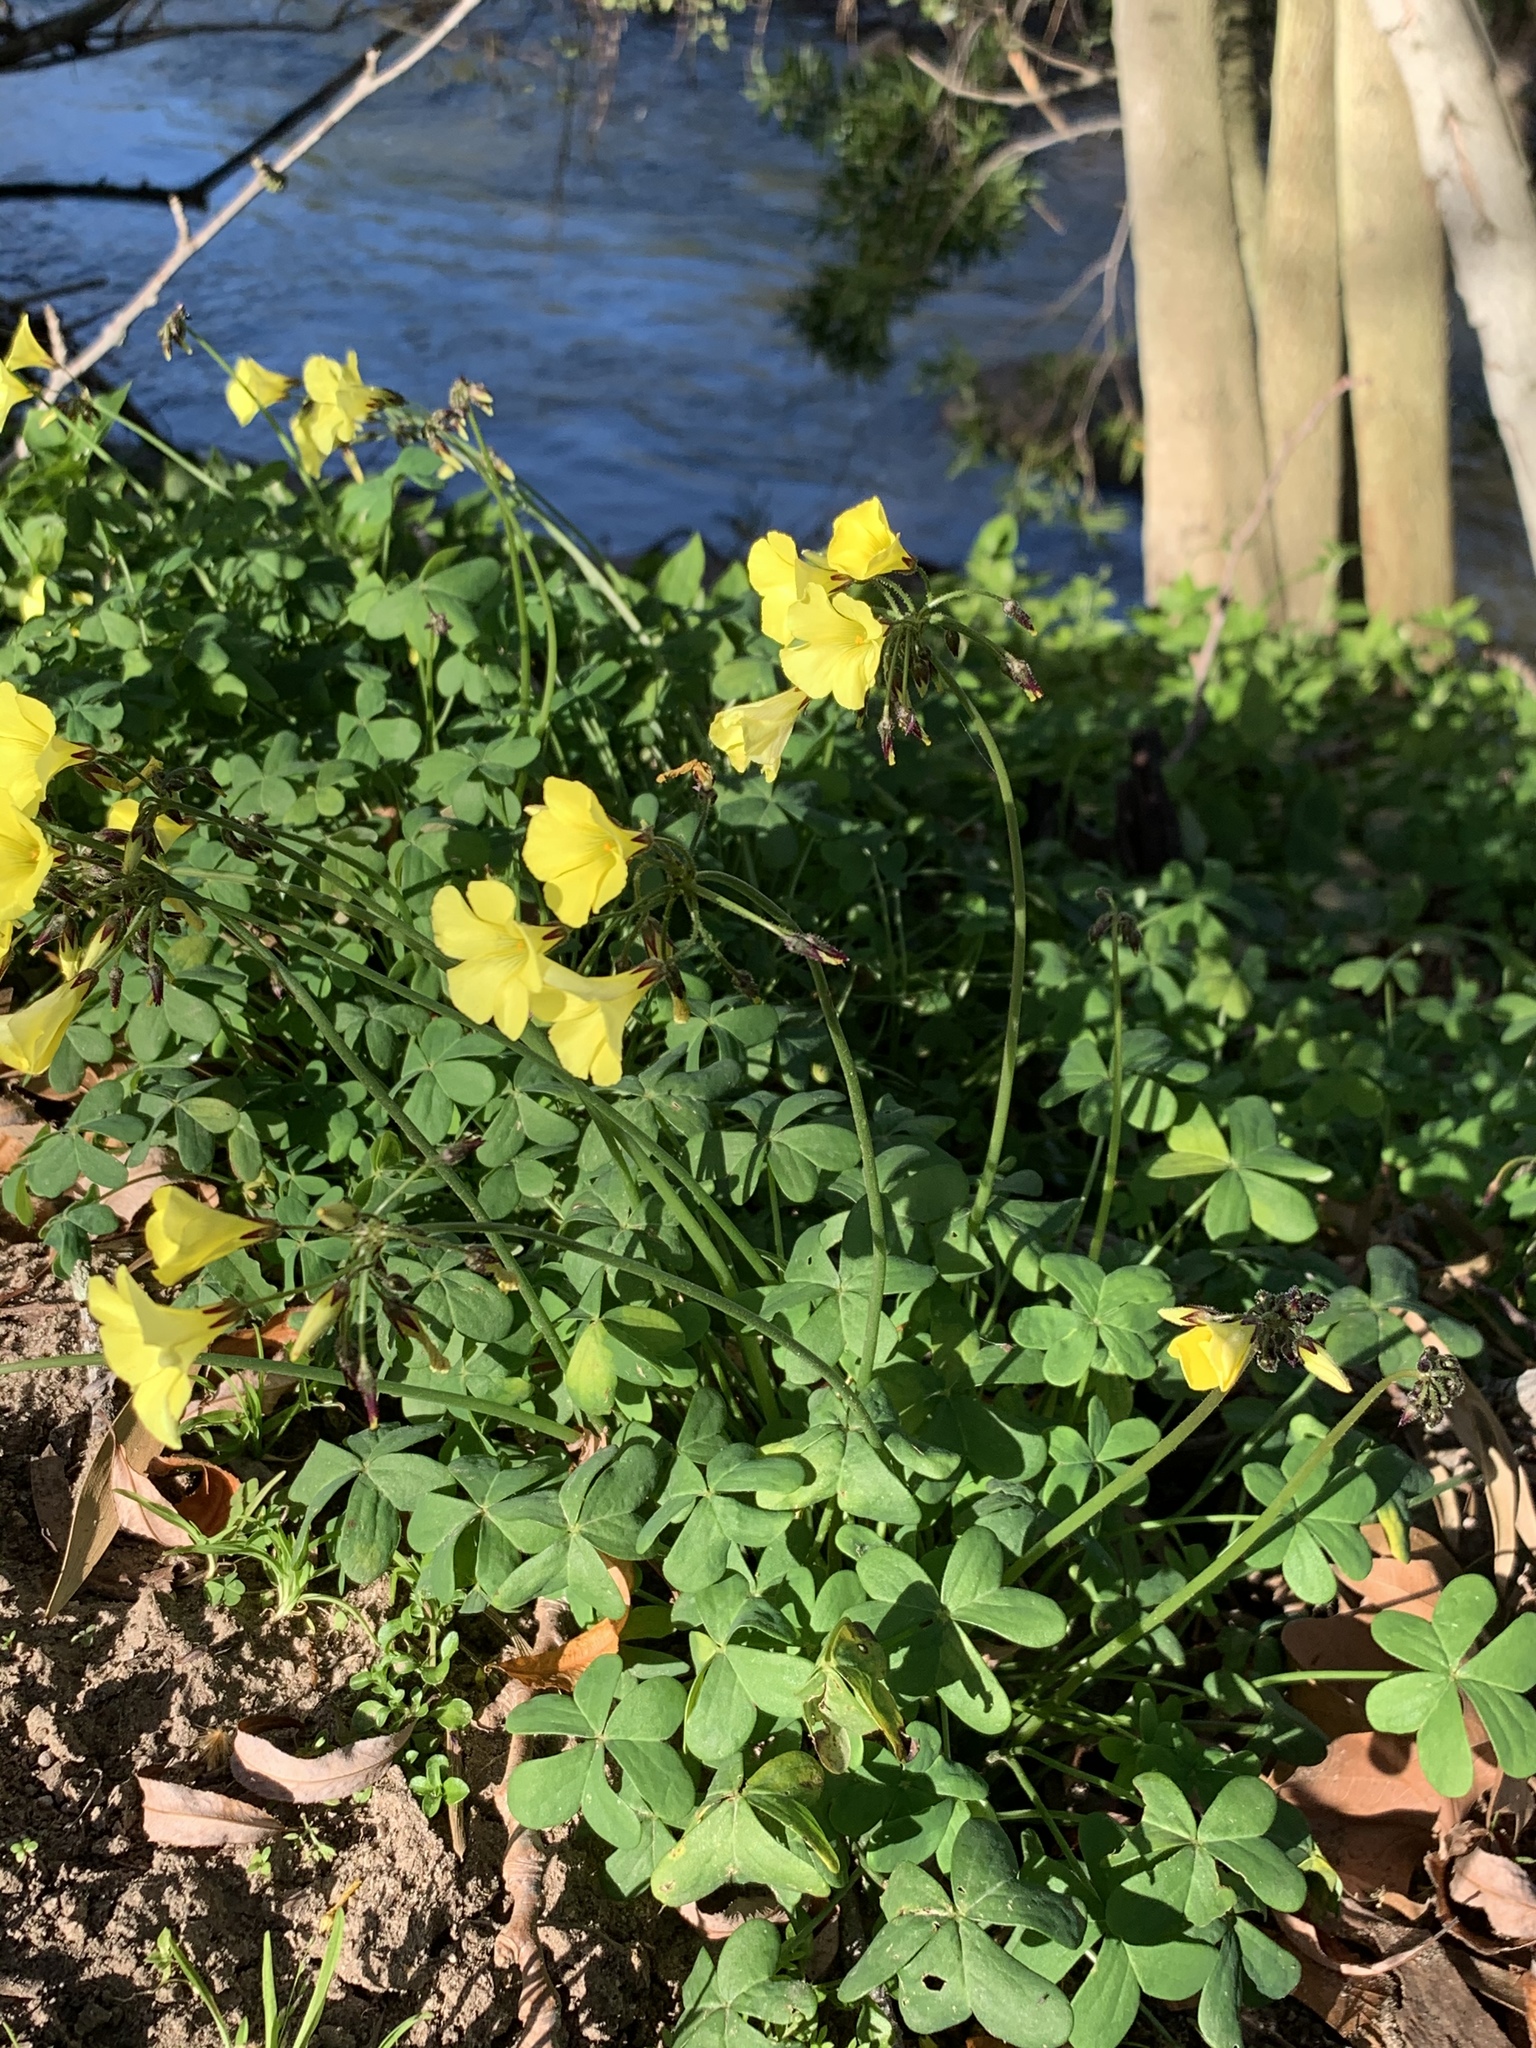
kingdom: Plantae
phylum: Tracheophyta
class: Magnoliopsida
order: Oxalidales
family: Oxalidaceae
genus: Oxalis
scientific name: Oxalis pes-caprae
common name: Bermuda-buttercup
